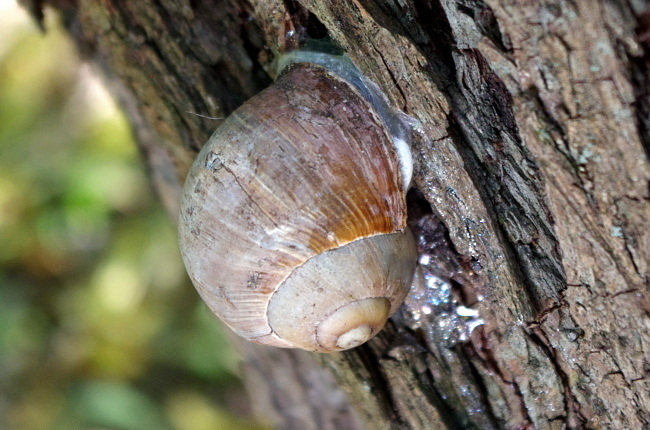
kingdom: Animalia
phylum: Mollusca
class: Gastropoda
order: Stylommatophora
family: Helicidae
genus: Helix
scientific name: Helix pomatia
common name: Roman snail
